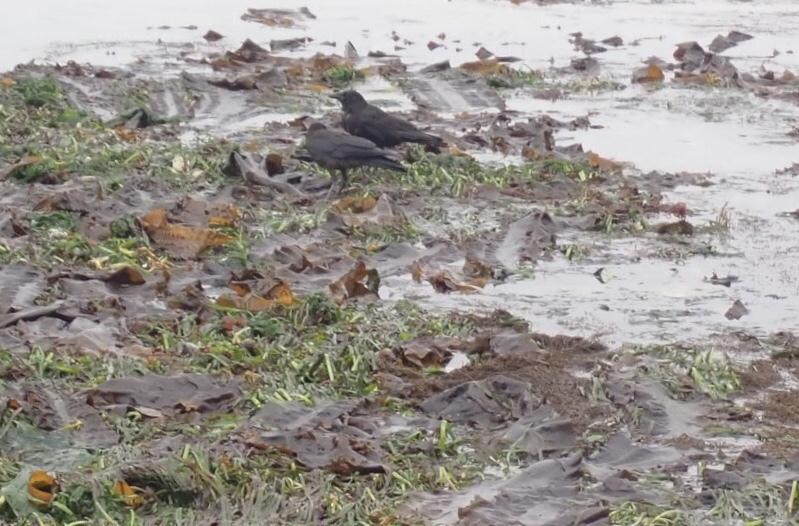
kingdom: Animalia
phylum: Chordata
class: Aves
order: Passeriformes
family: Corvidae
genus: Corvus
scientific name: Corvus brachyrhynchos
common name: American crow
